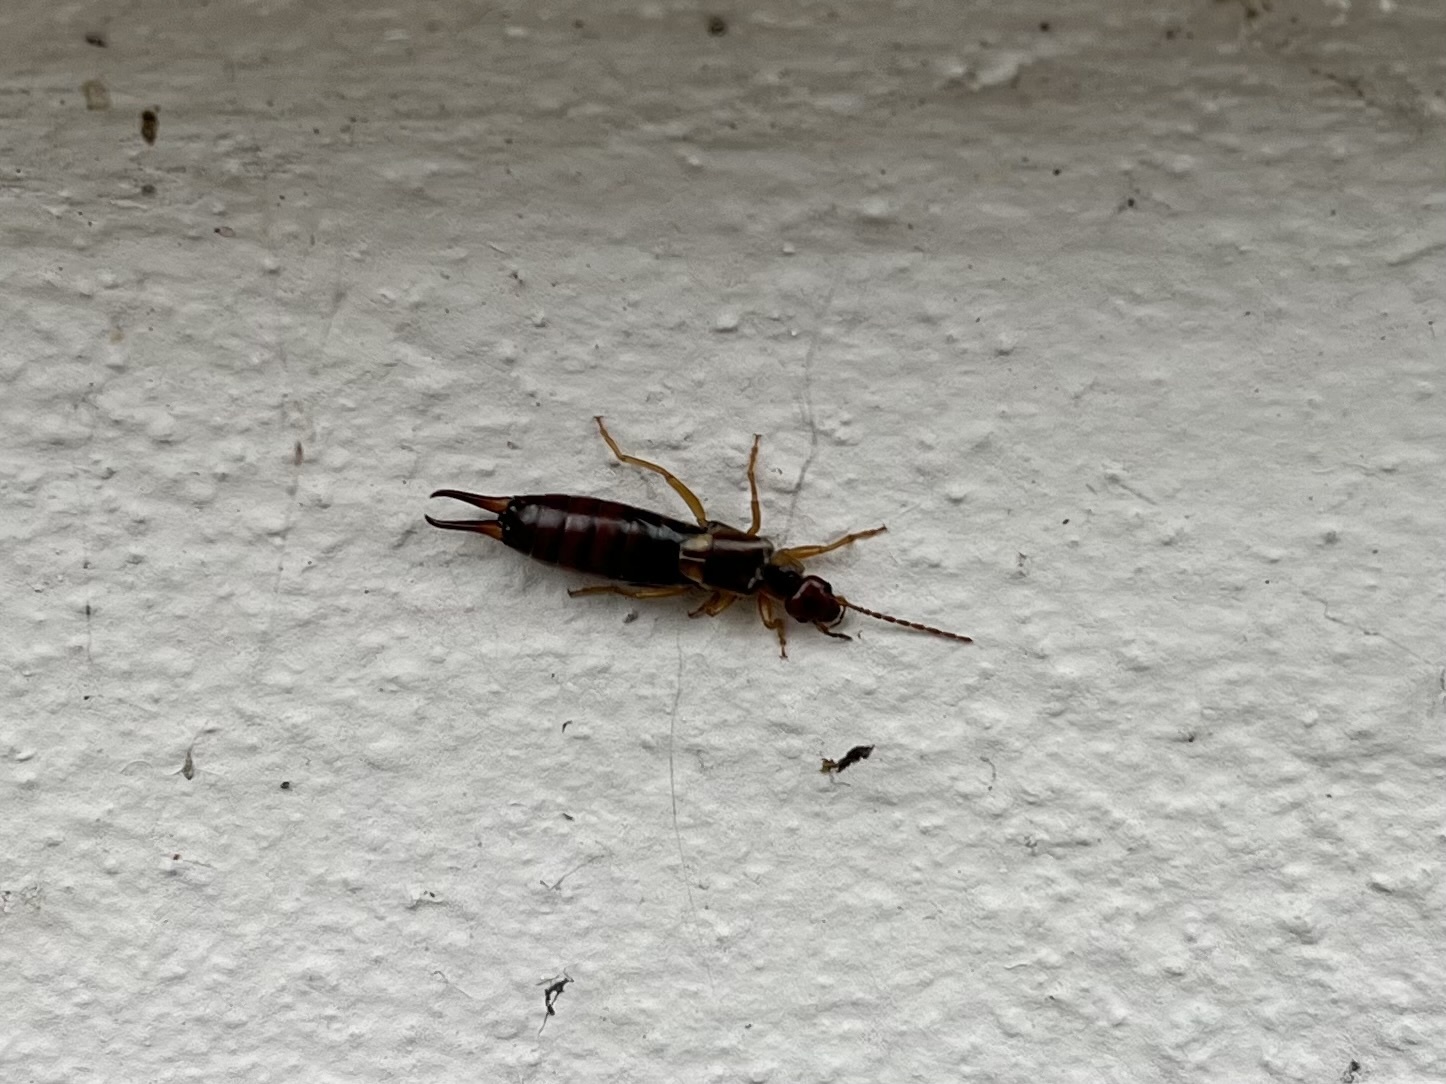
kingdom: Animalia
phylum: Arthropoda
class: Insecta
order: Dermaptera
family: Forficulidae
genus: Forficula
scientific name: Forficula
